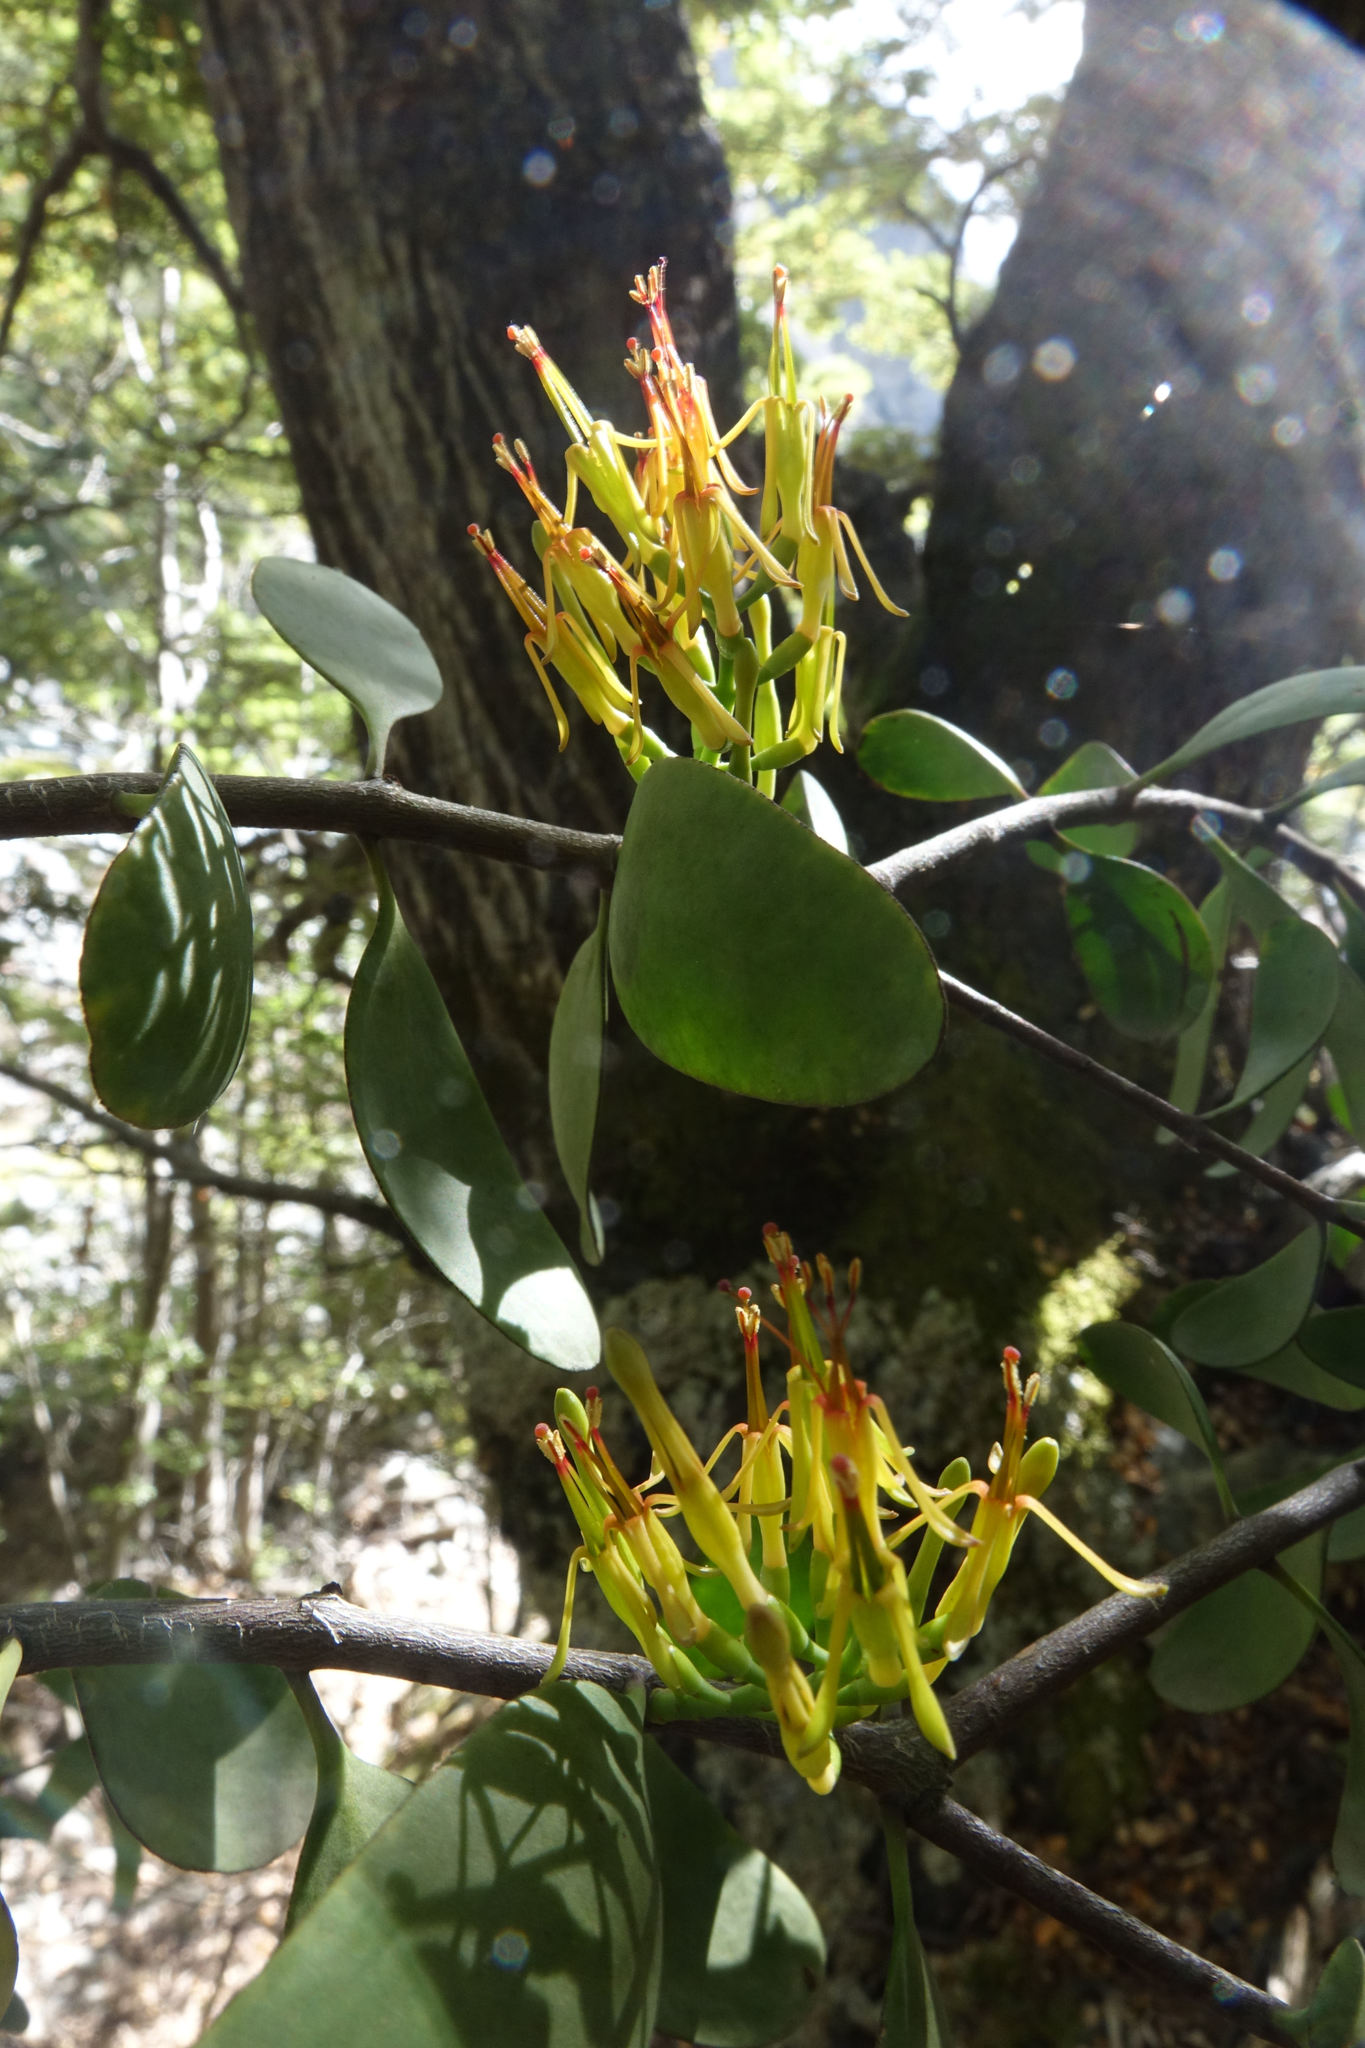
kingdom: Plantae
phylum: Tracheophyta
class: Magnoliopsida
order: Santalales
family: Loranthaceae
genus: Alepis
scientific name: Alepis flavida
